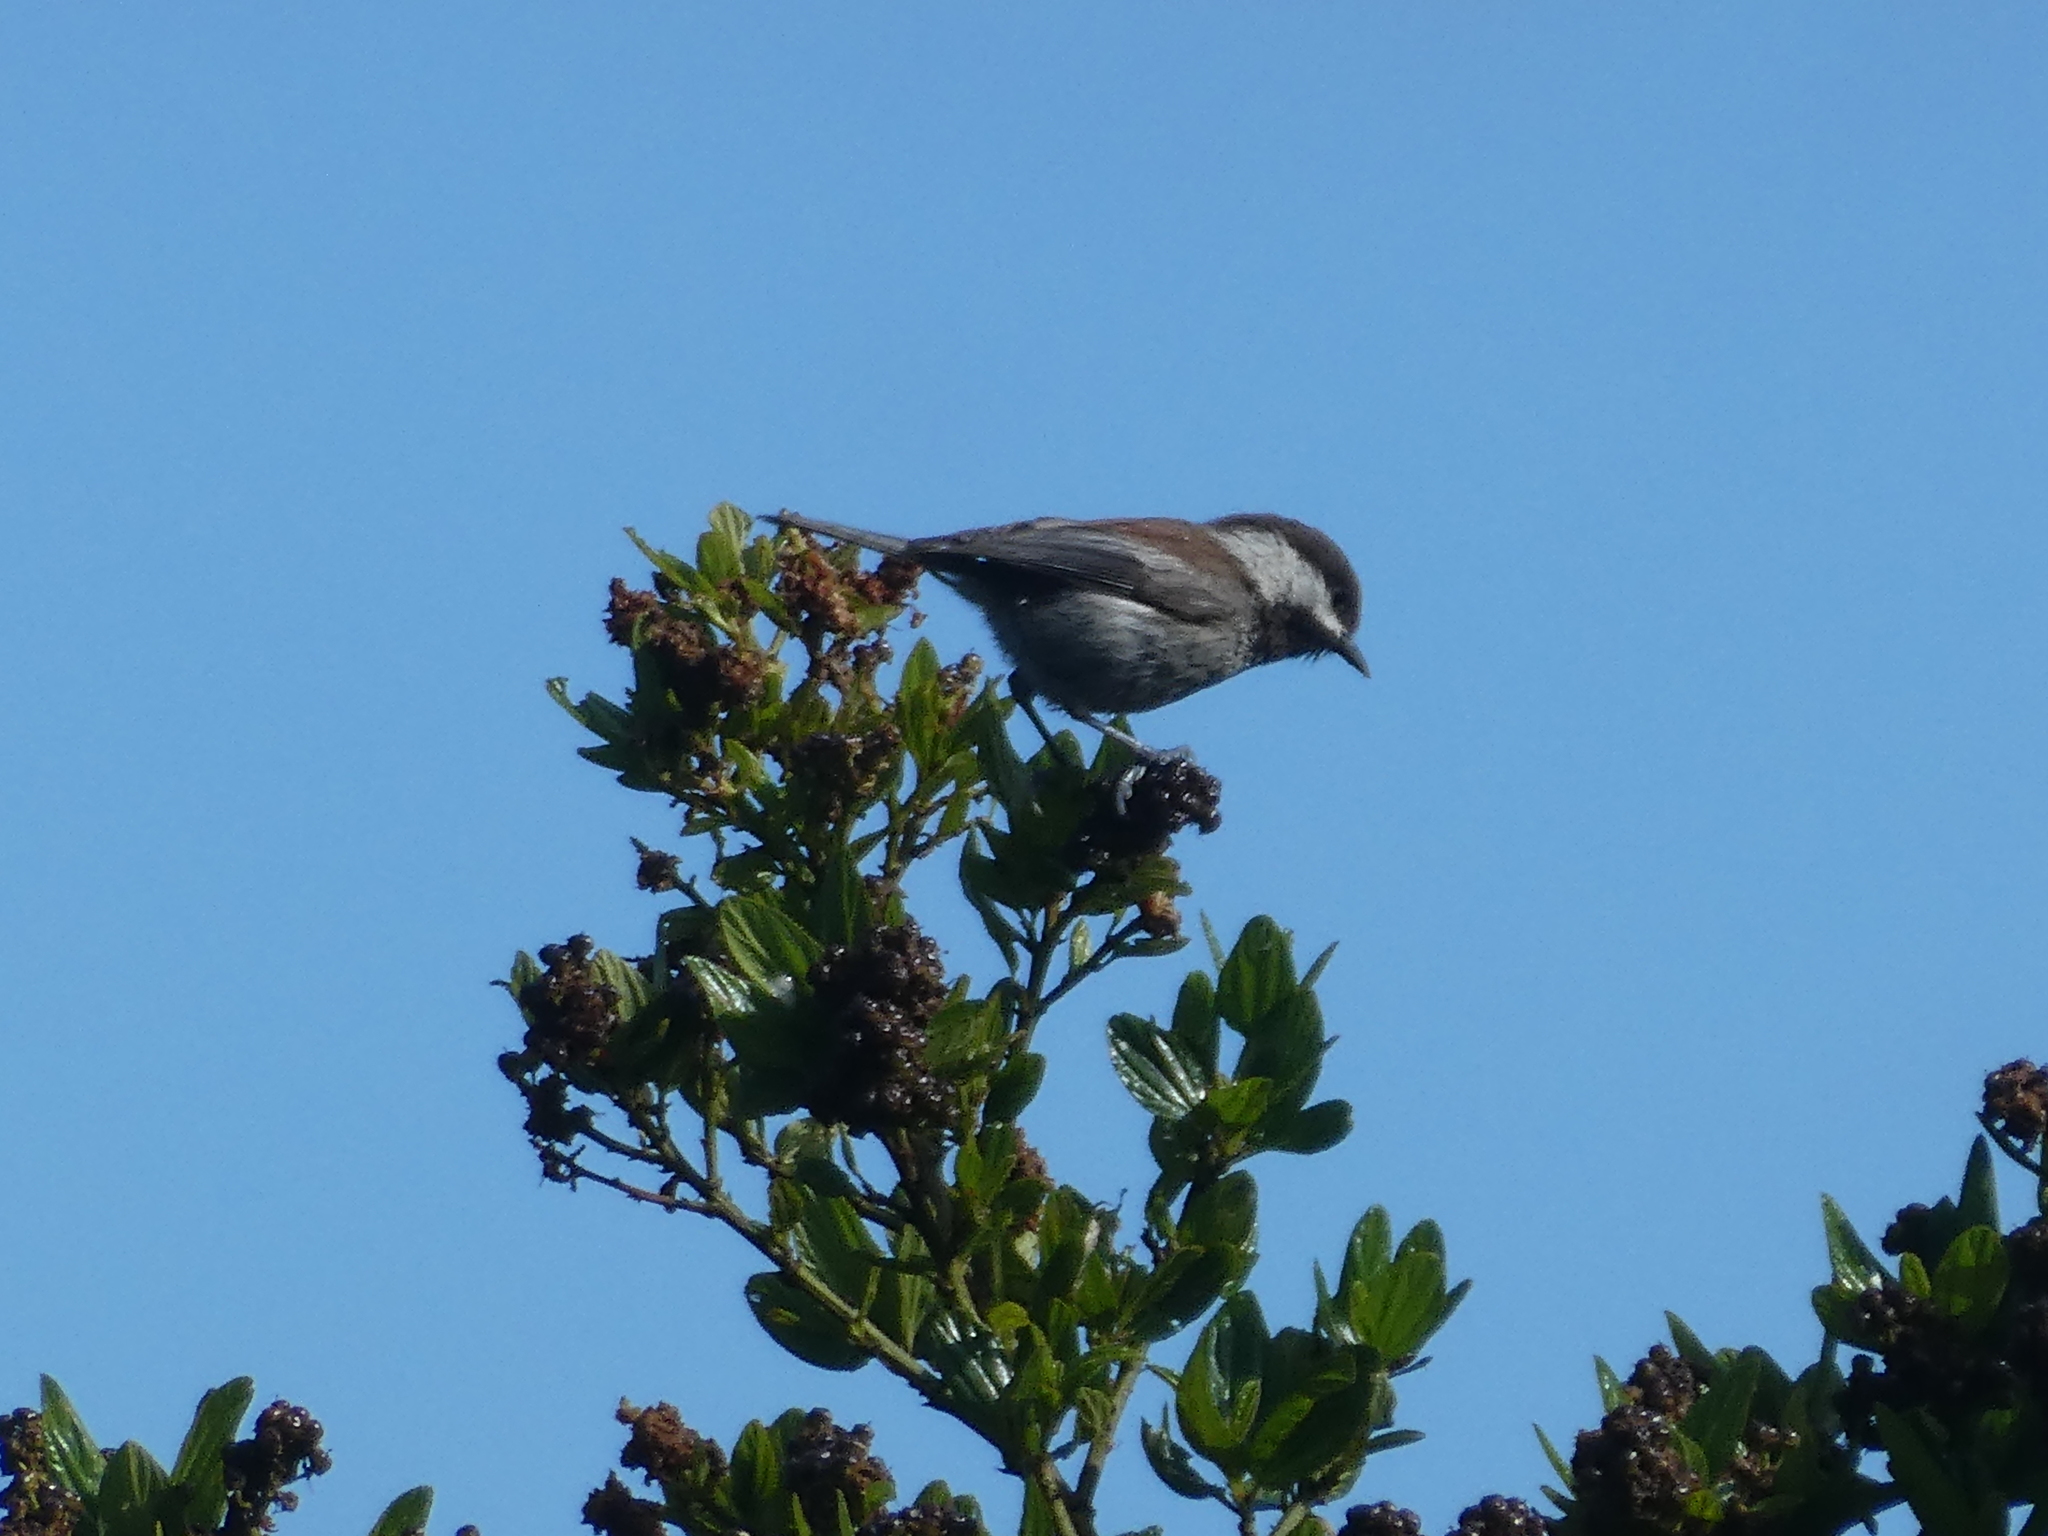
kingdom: Animalia
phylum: Chordata
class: Aves
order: Passeriformes
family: Paridae
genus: Poecile
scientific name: Poecile rufescens
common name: Chestnut-backed chickadee
